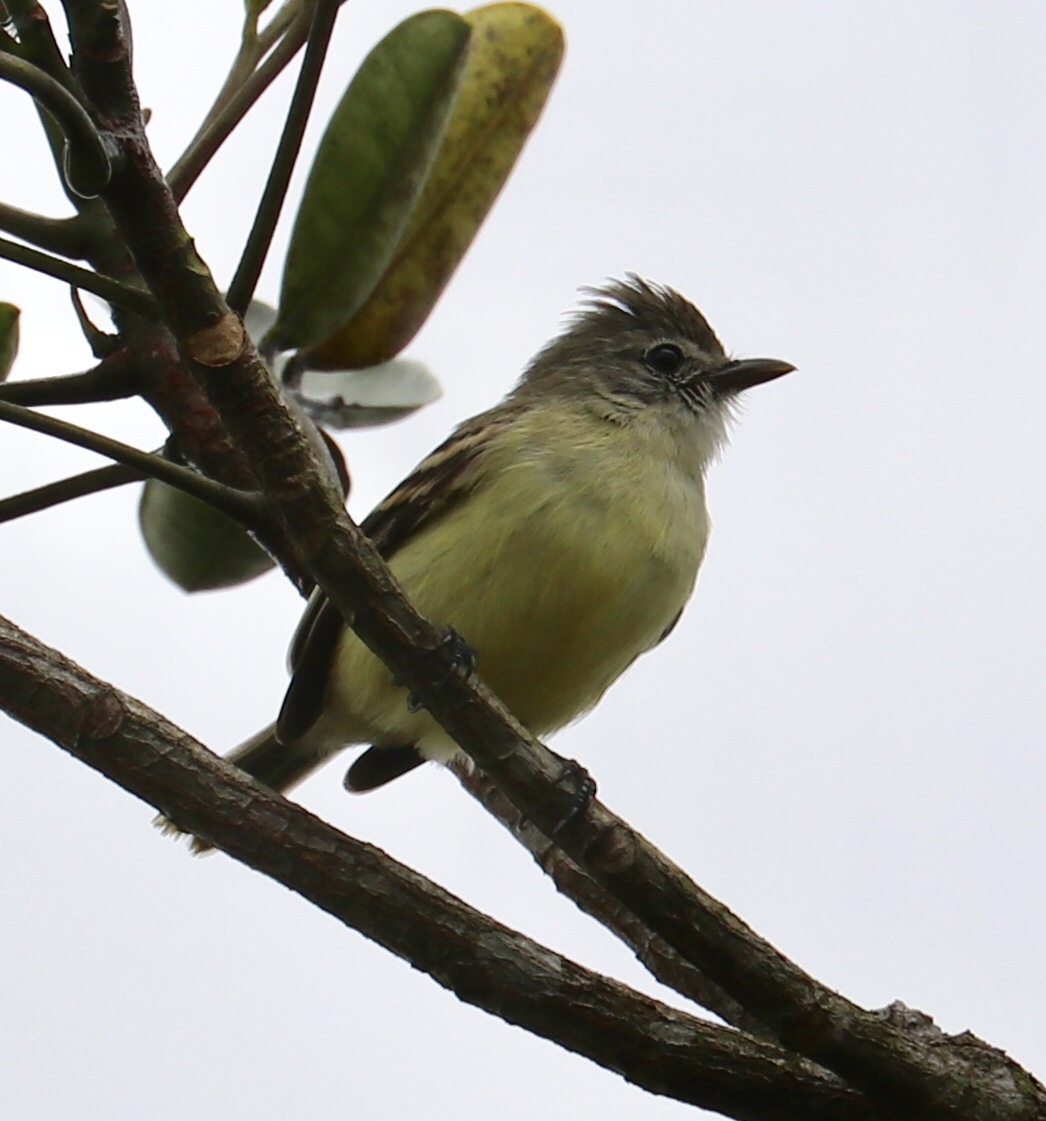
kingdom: Animalia
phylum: Chordata
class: Aves
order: Passeriformes
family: Tyrannidae
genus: Camptostoma
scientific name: Camptostoma obsoletum
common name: Southern beardless-tyrannulet
